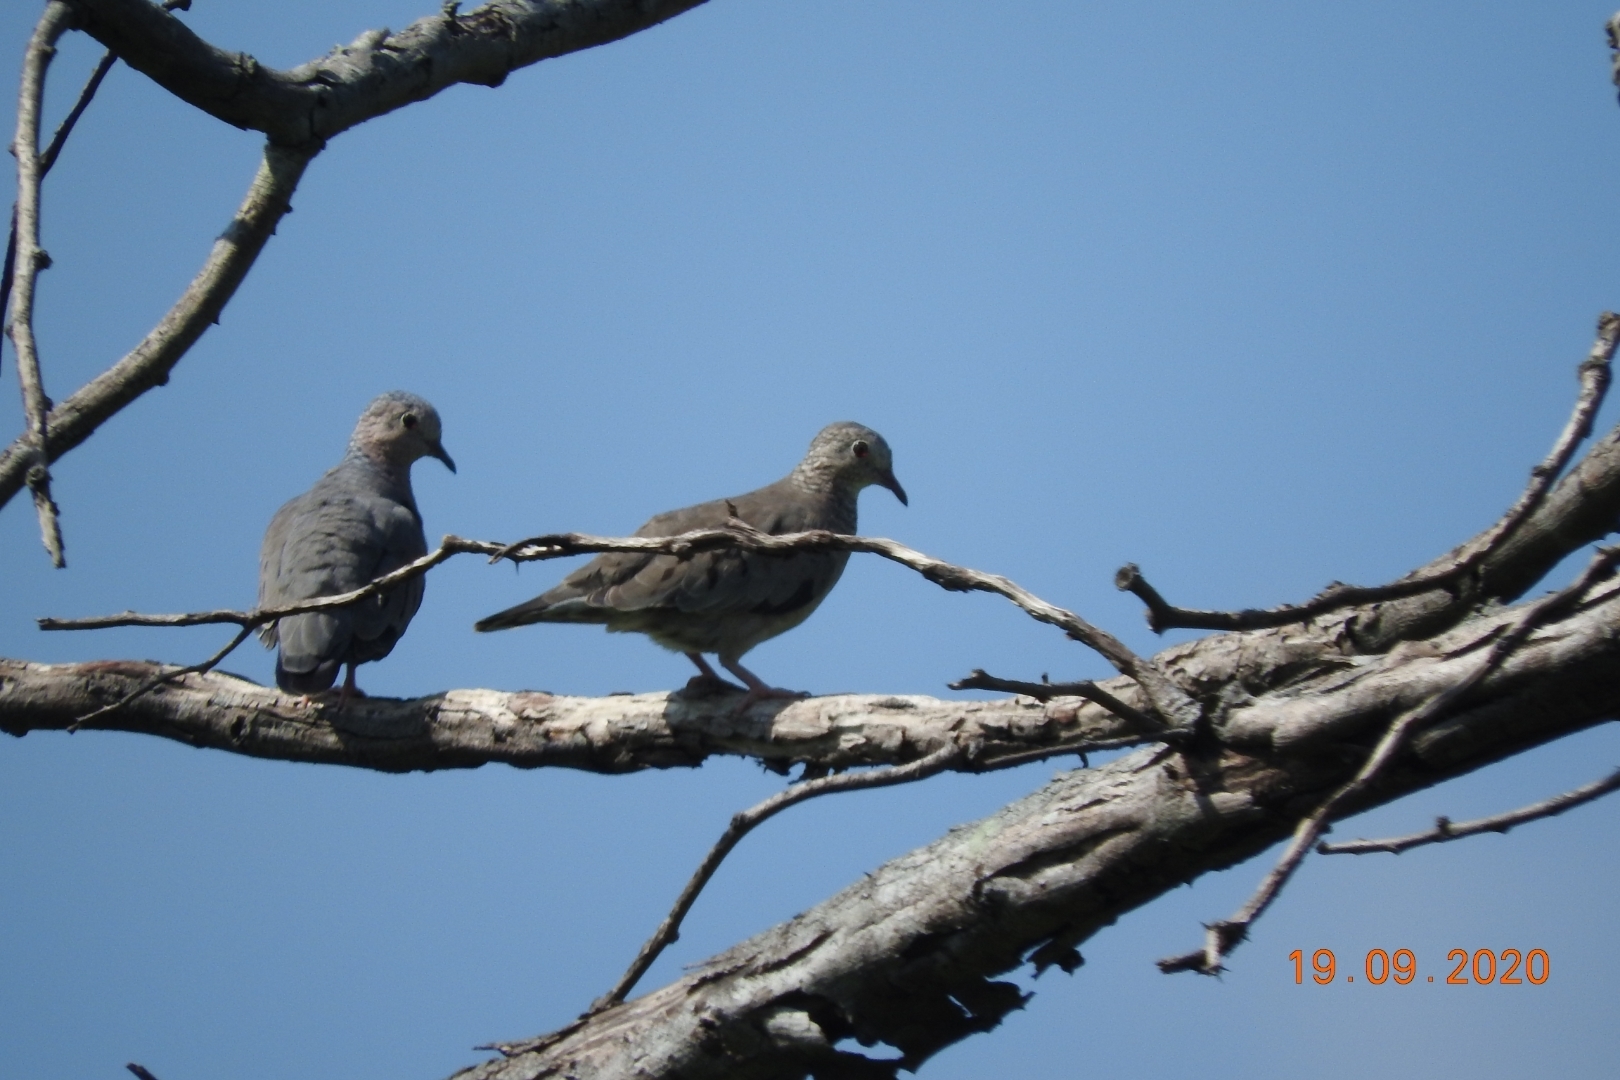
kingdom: Animalia
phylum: Chordata
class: Aves
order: Columbiformes
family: Columbidae
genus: Columbina
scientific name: Columbina passerina
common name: Common ground-dove
